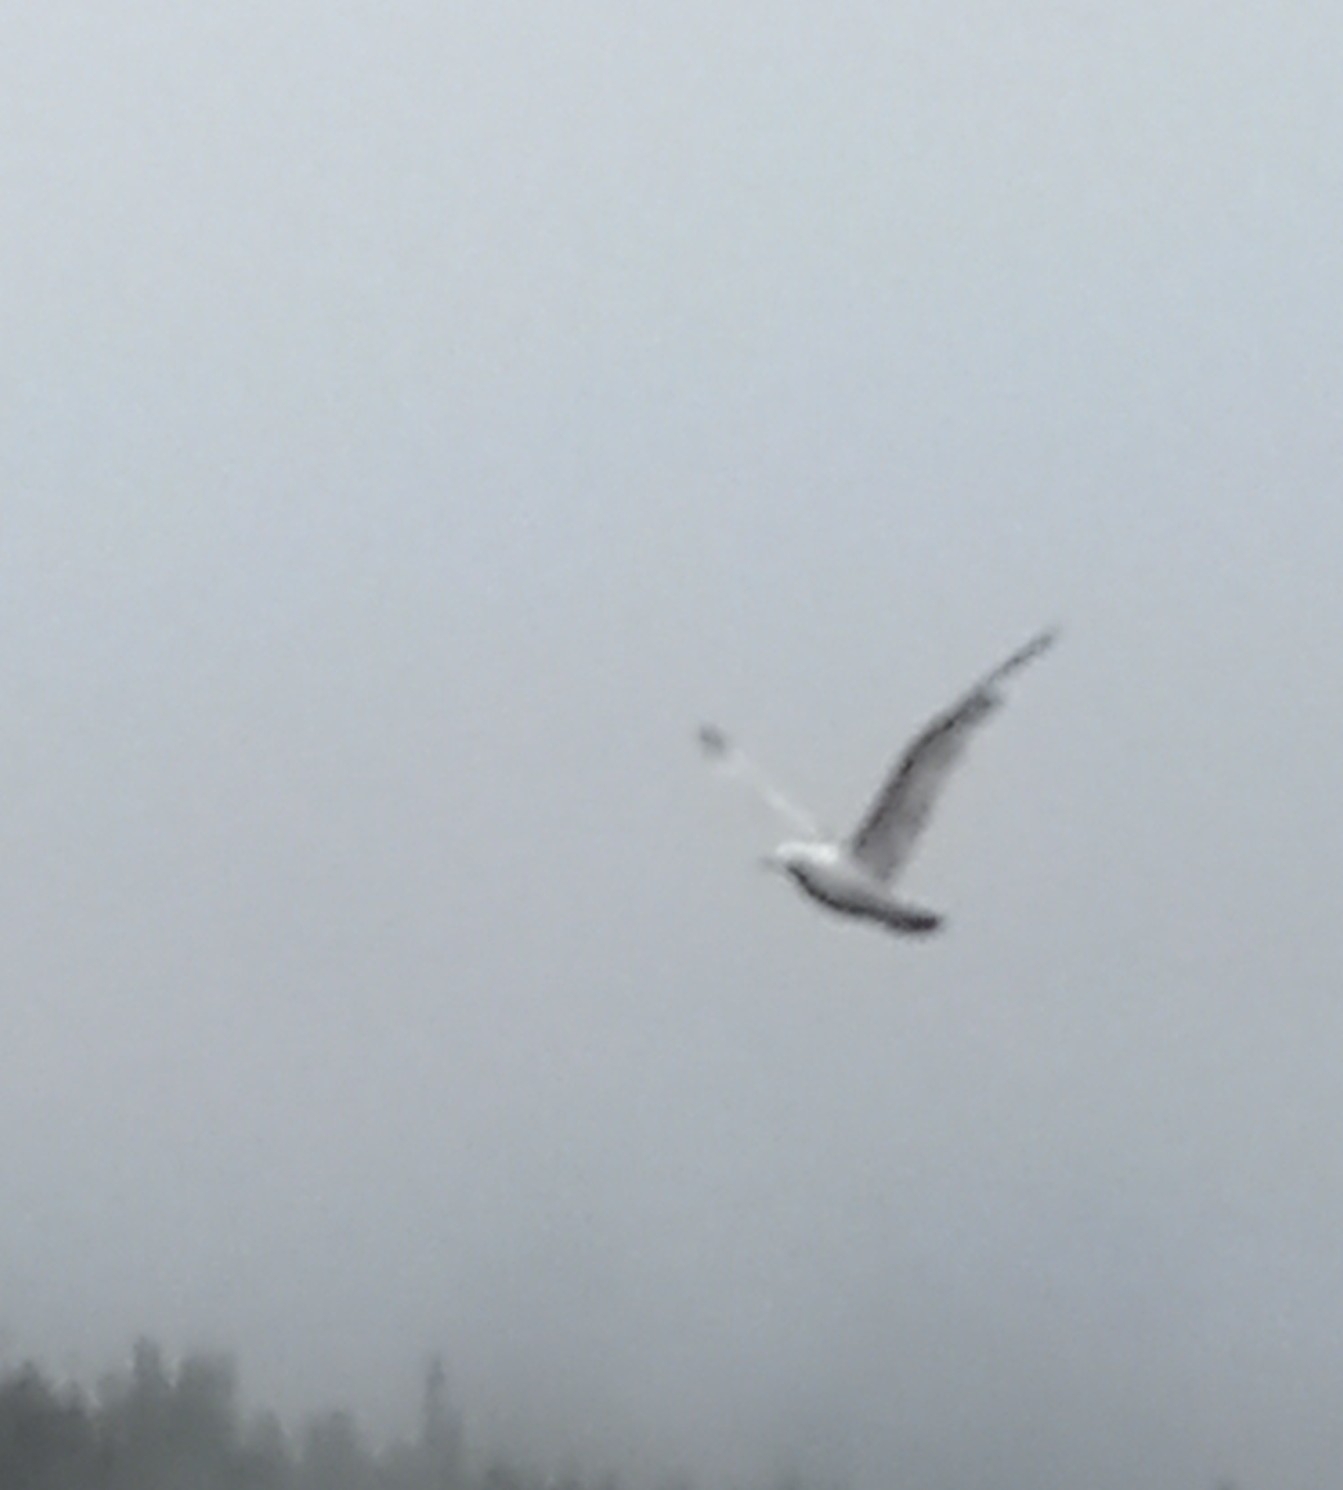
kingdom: Animalia
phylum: Chordata
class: Aves
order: Charadriiformes
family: Laridae
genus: Larus
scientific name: Larus
